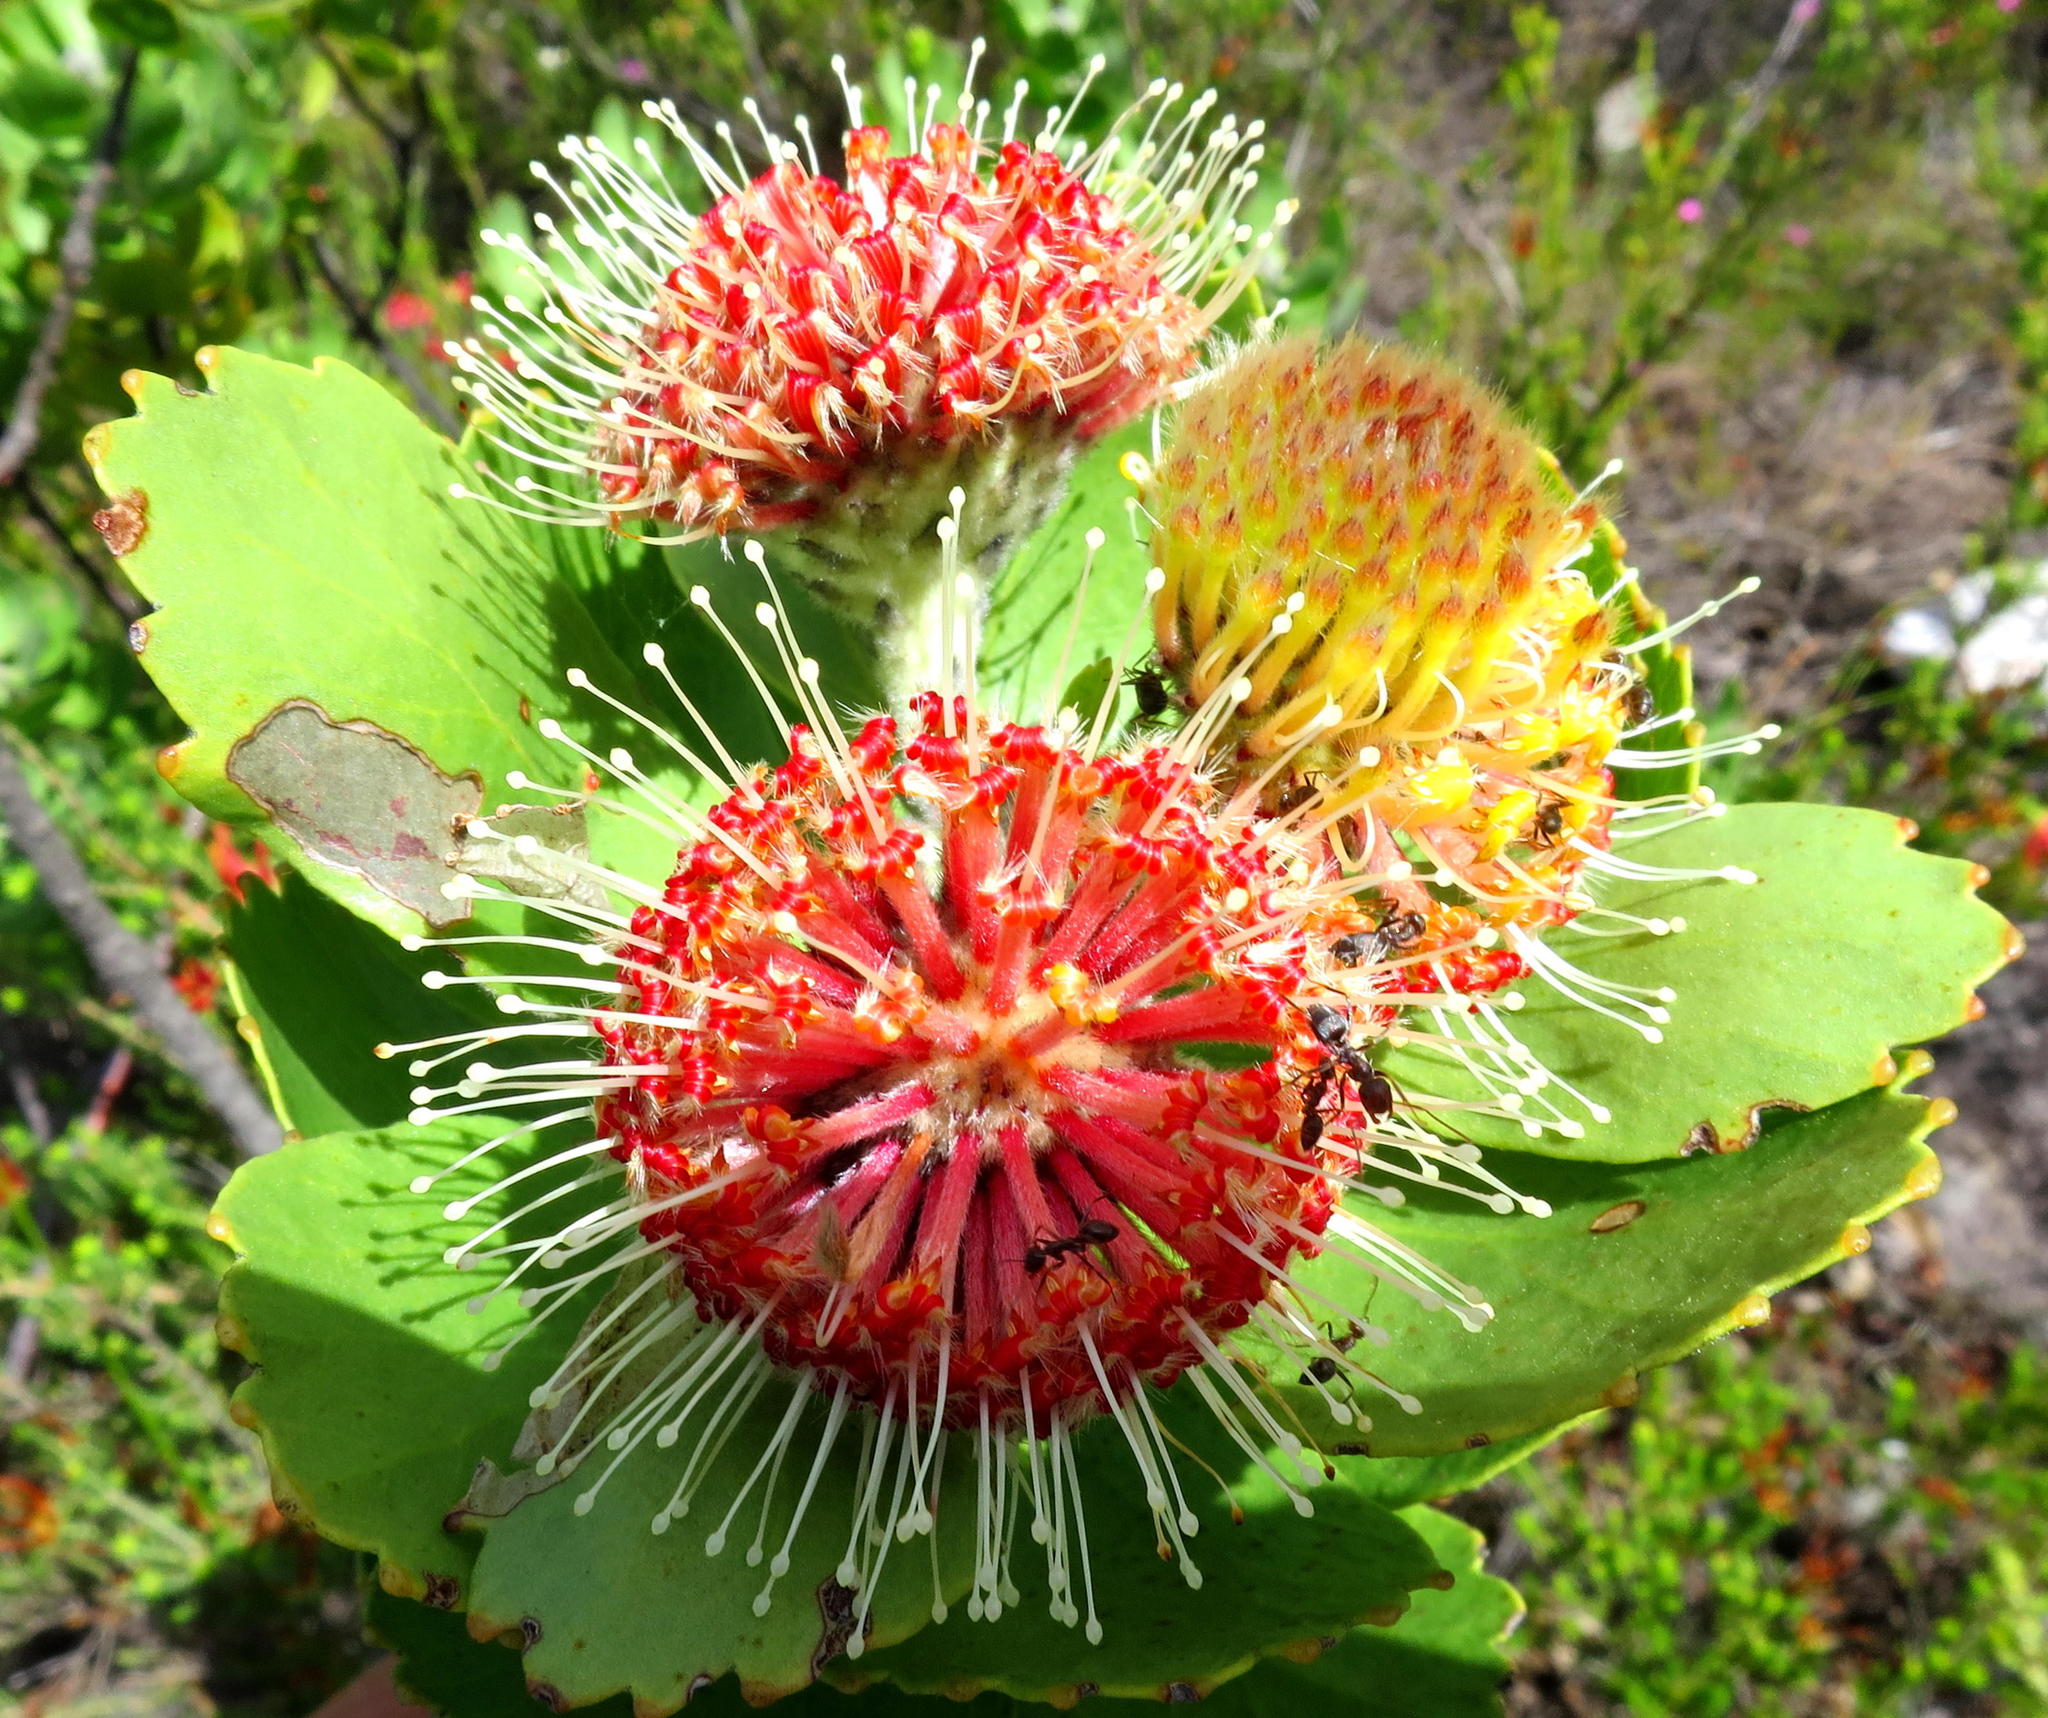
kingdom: Plantae
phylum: Tracheophyta
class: Magnoliopsida
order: Proteales
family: Proteaceae
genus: Leucospermum
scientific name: Leucospermum winteri
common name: Riversdale pincushion
